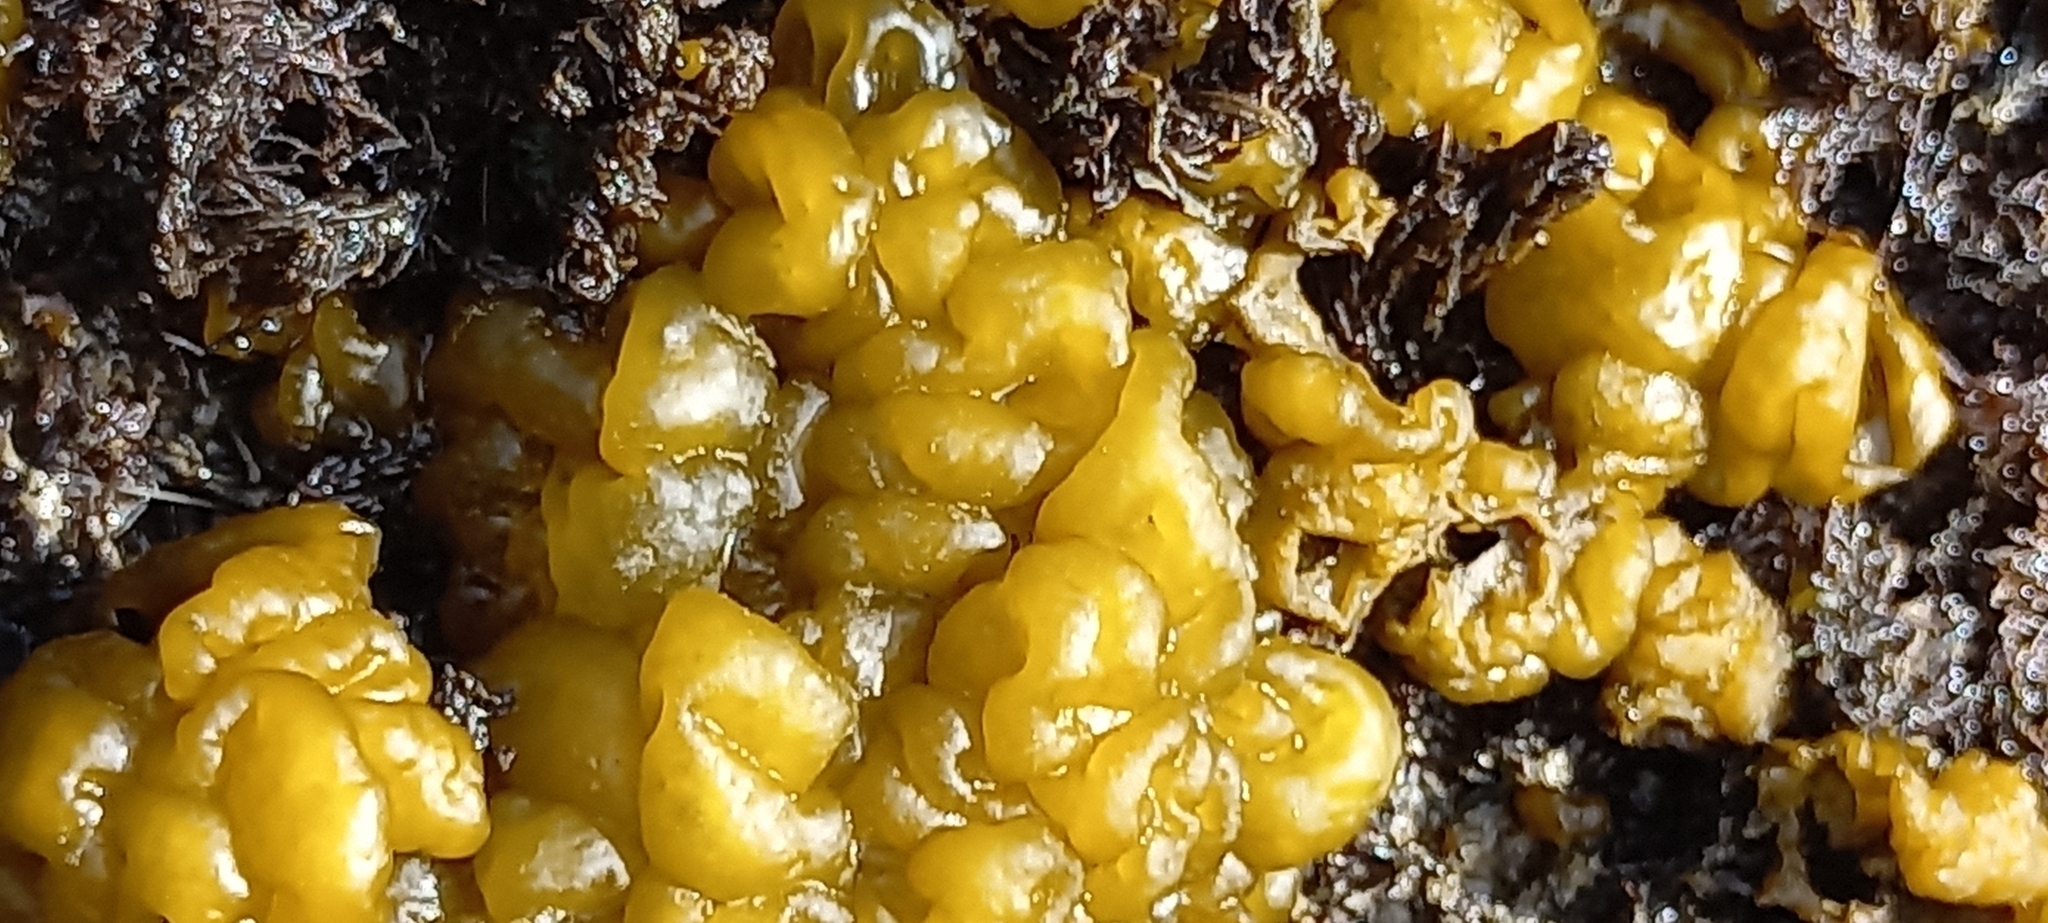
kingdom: Chromista
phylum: Ochrophyta
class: Phaeophyceae
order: Ectocarpales
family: Chordariaceae
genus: Leathesia
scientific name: Leathesia marina
